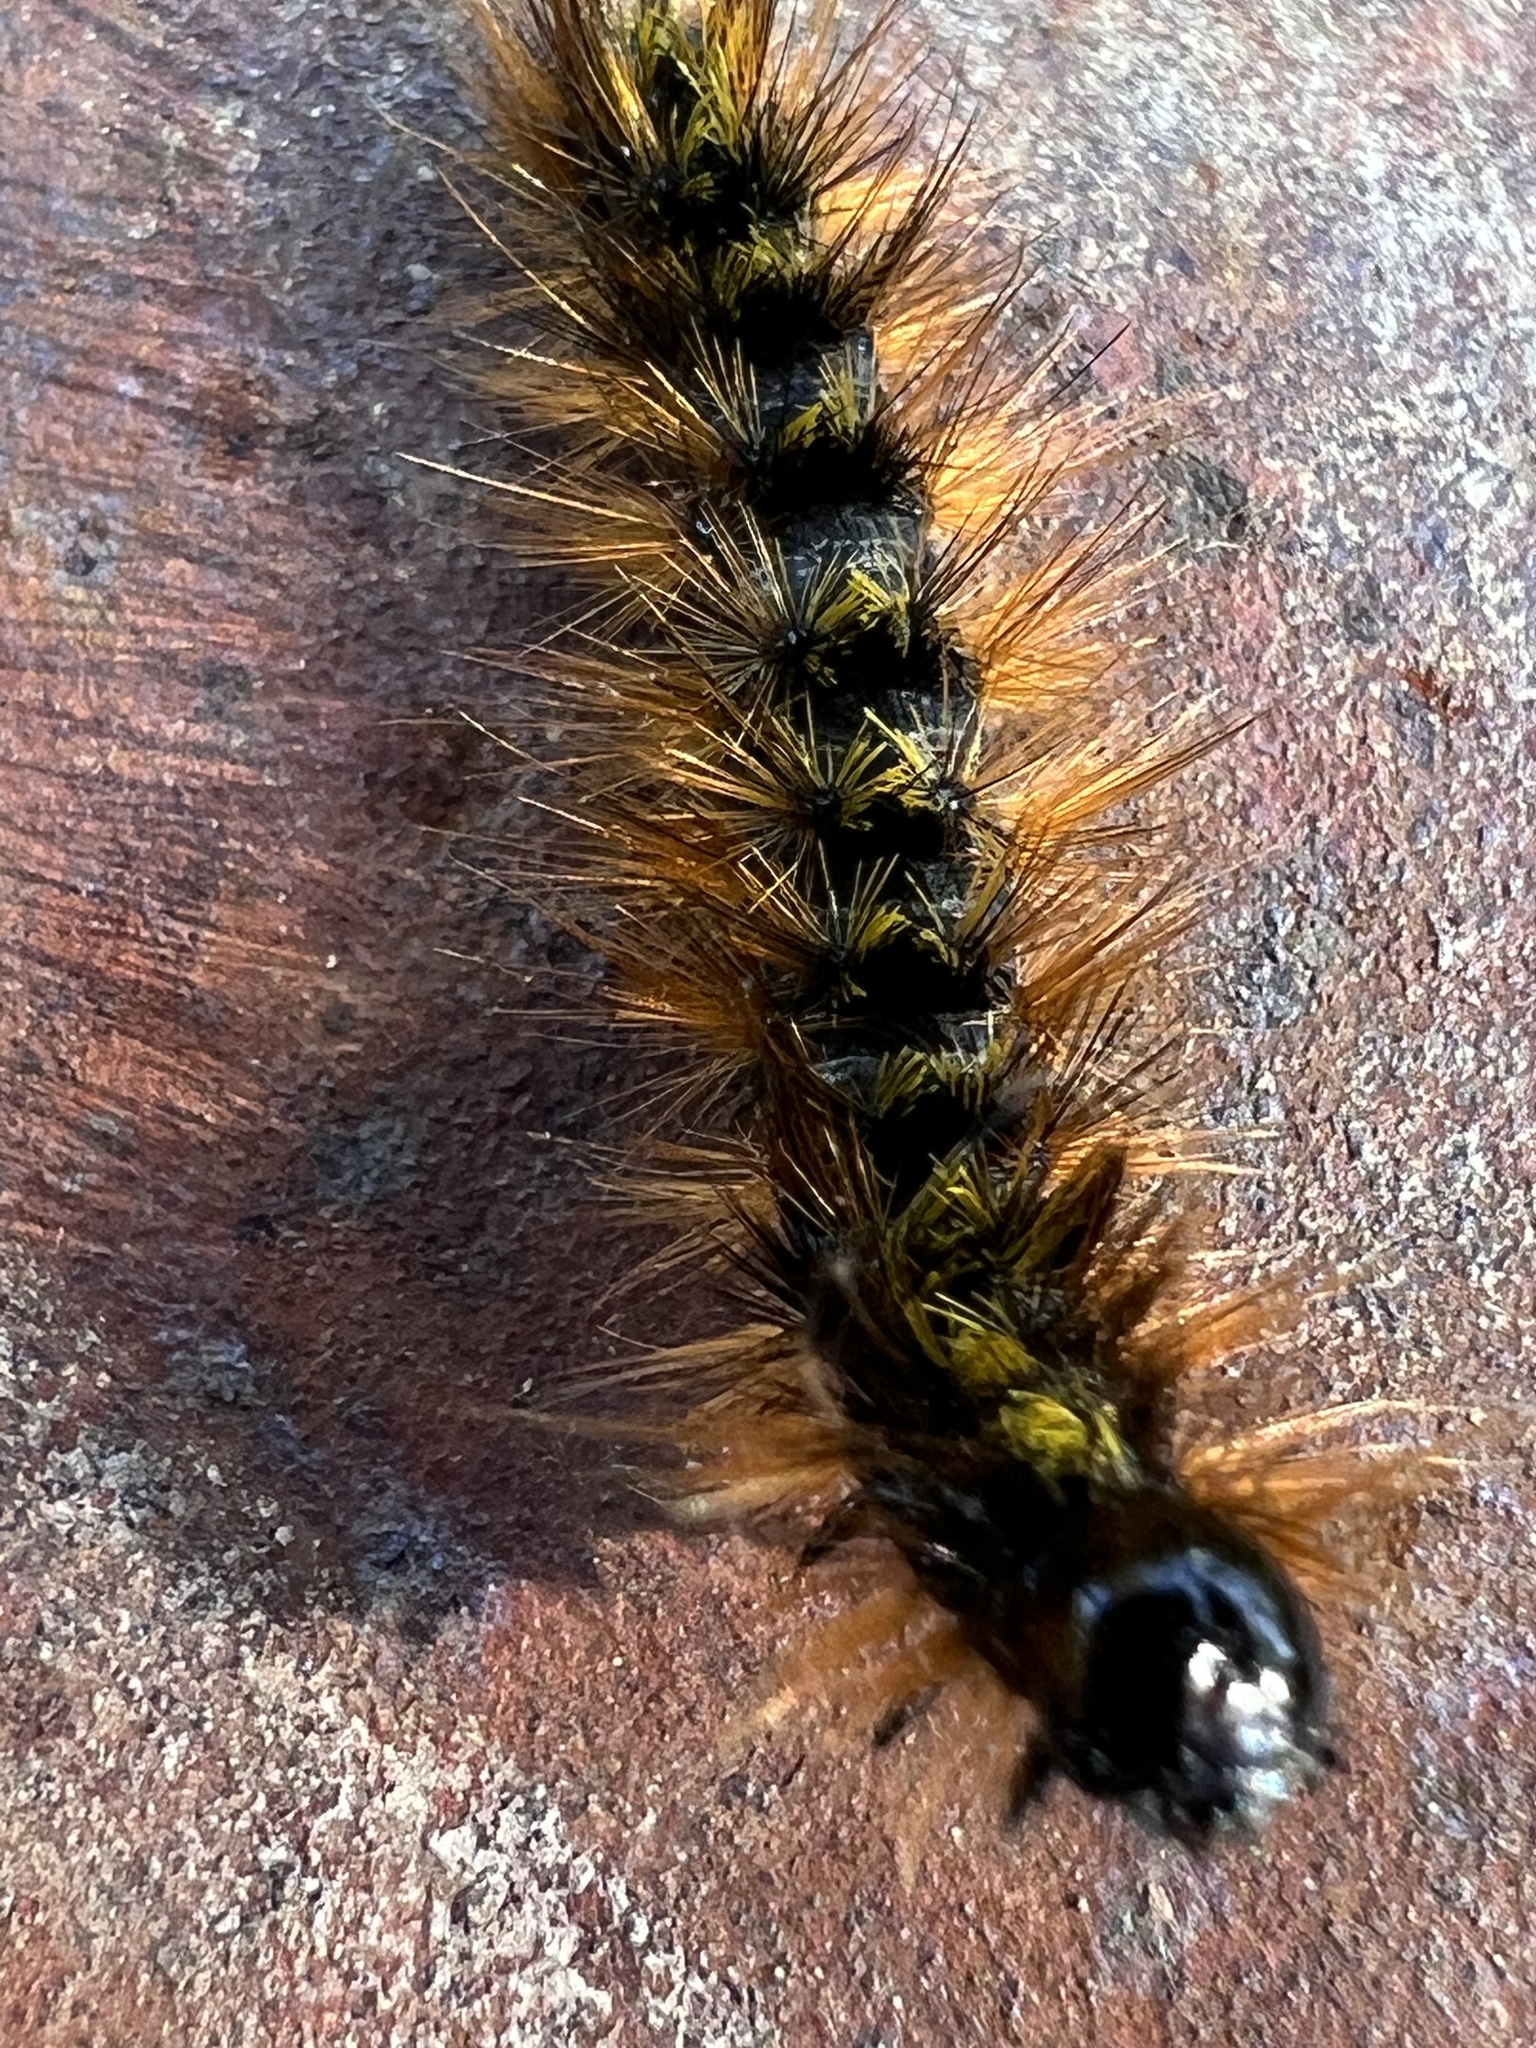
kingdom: Animalia
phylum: Arthropoda
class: Insecta
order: Lepidoptera
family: Erebidae
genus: Lophocampa
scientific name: Lophocampa argentata
